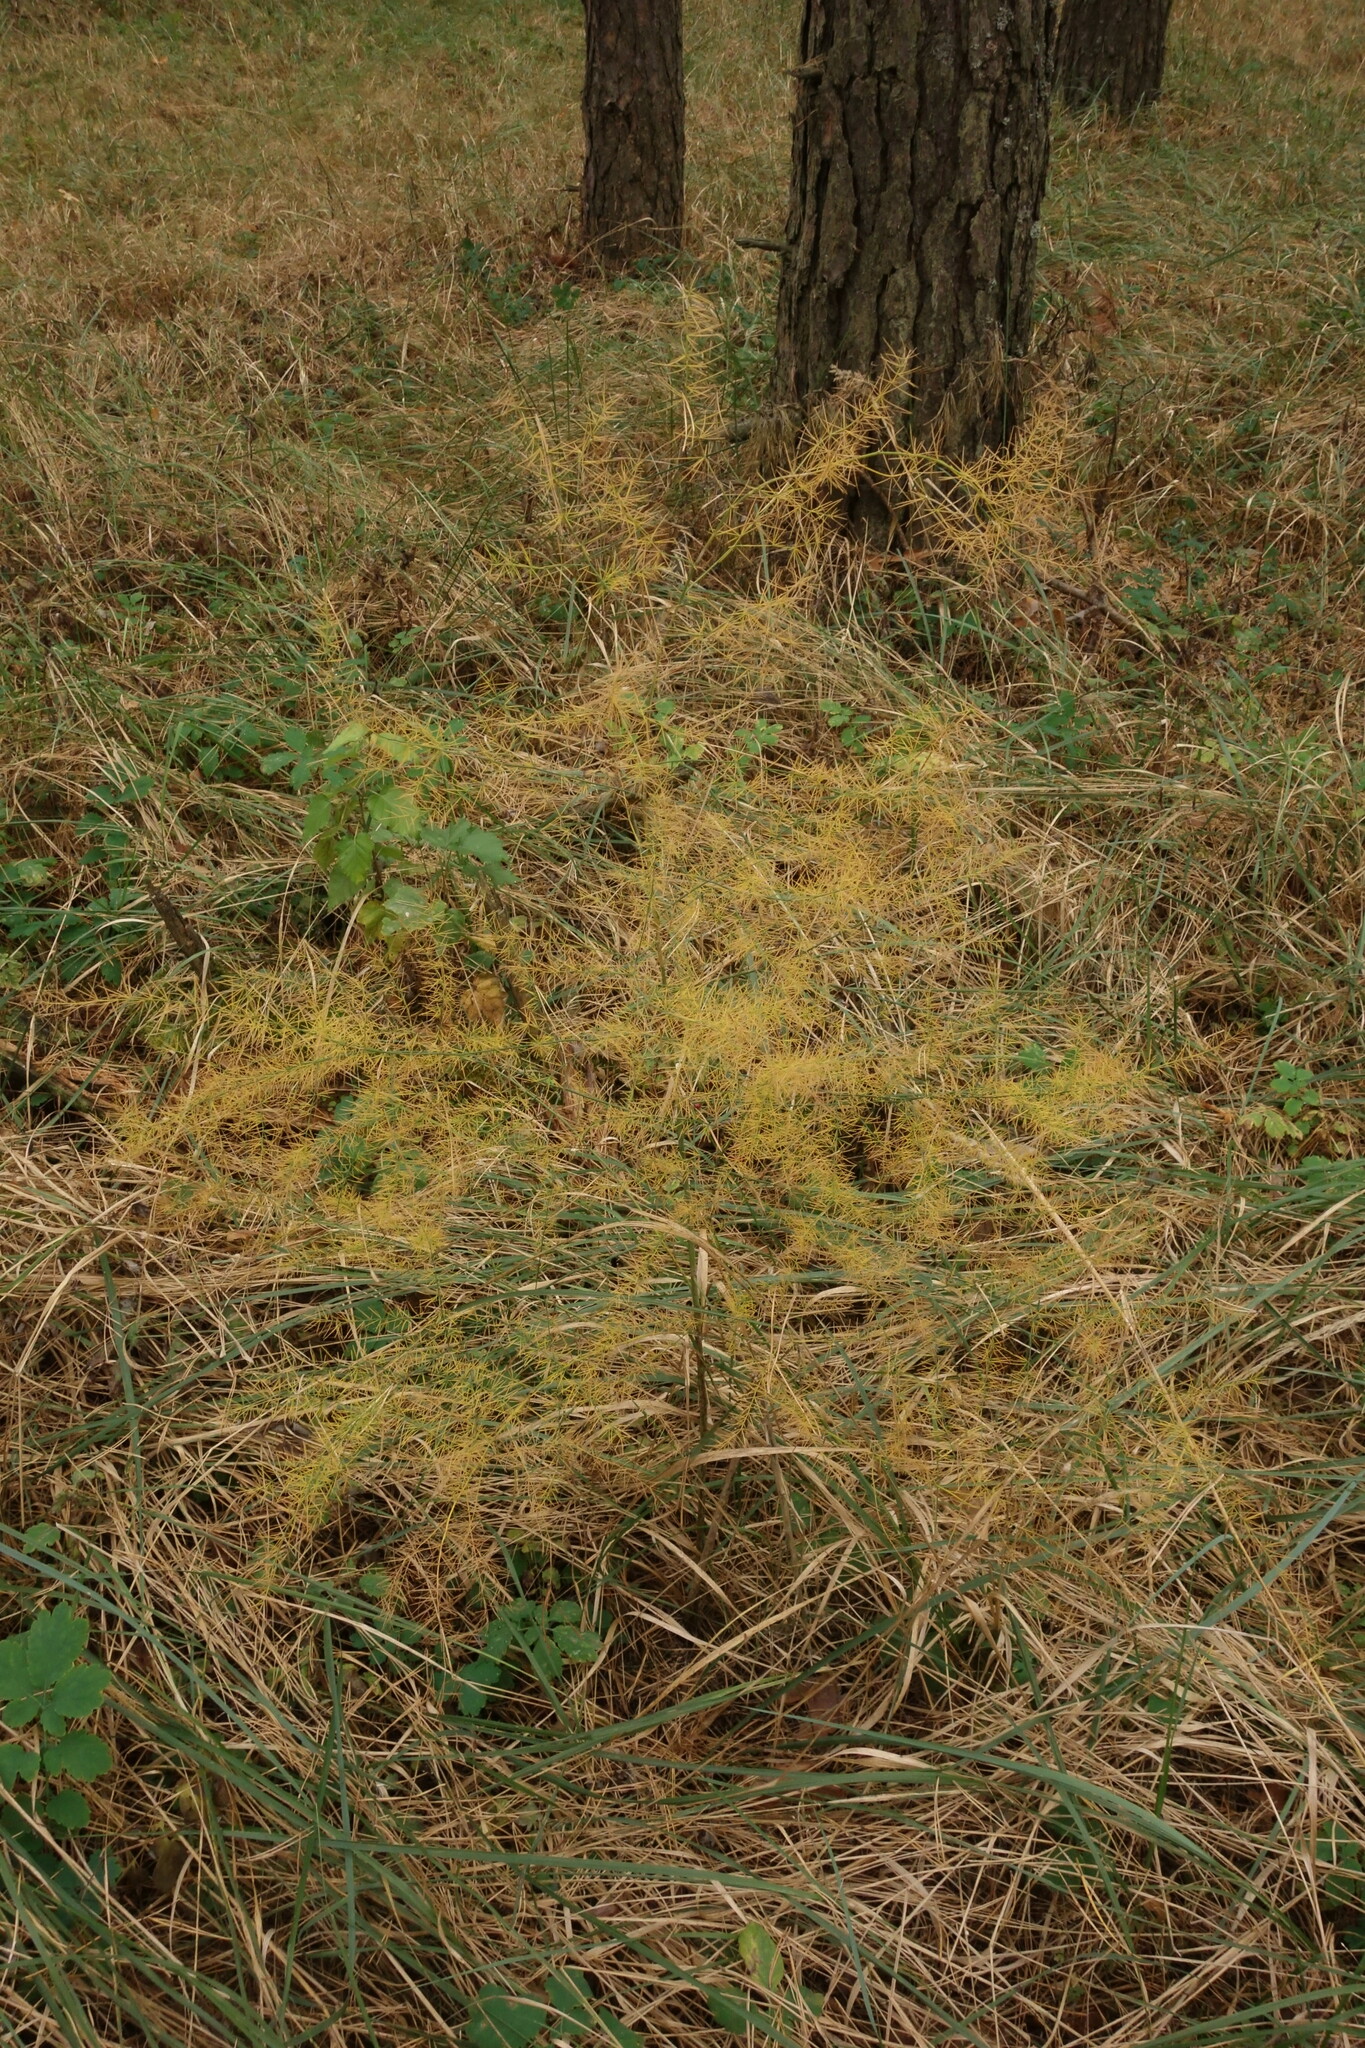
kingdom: Plantae
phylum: Tracheophyta
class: Liliopsida
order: Asparagales
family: Asparagaceae
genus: Asparagus
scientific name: Asparagus officinalis
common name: Garden asparagus
